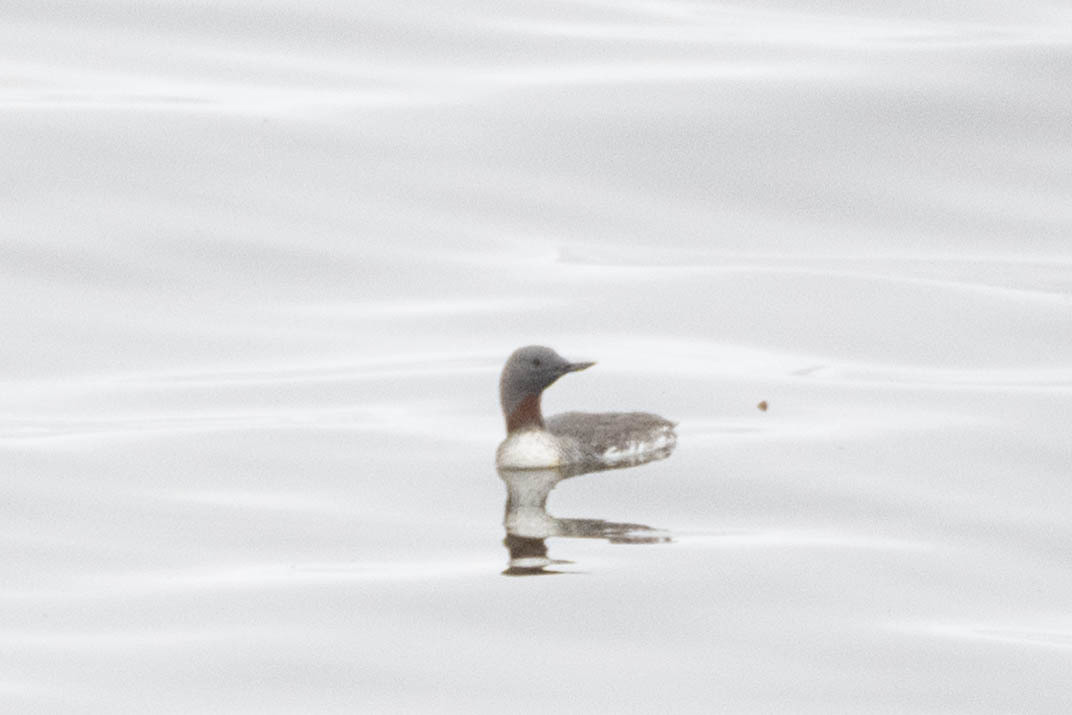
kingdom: Animalia
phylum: Chordata
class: Aves
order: Gaviiformes
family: Gaviidae
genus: Gavia
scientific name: Gavia stellata
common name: Red-throated loon
